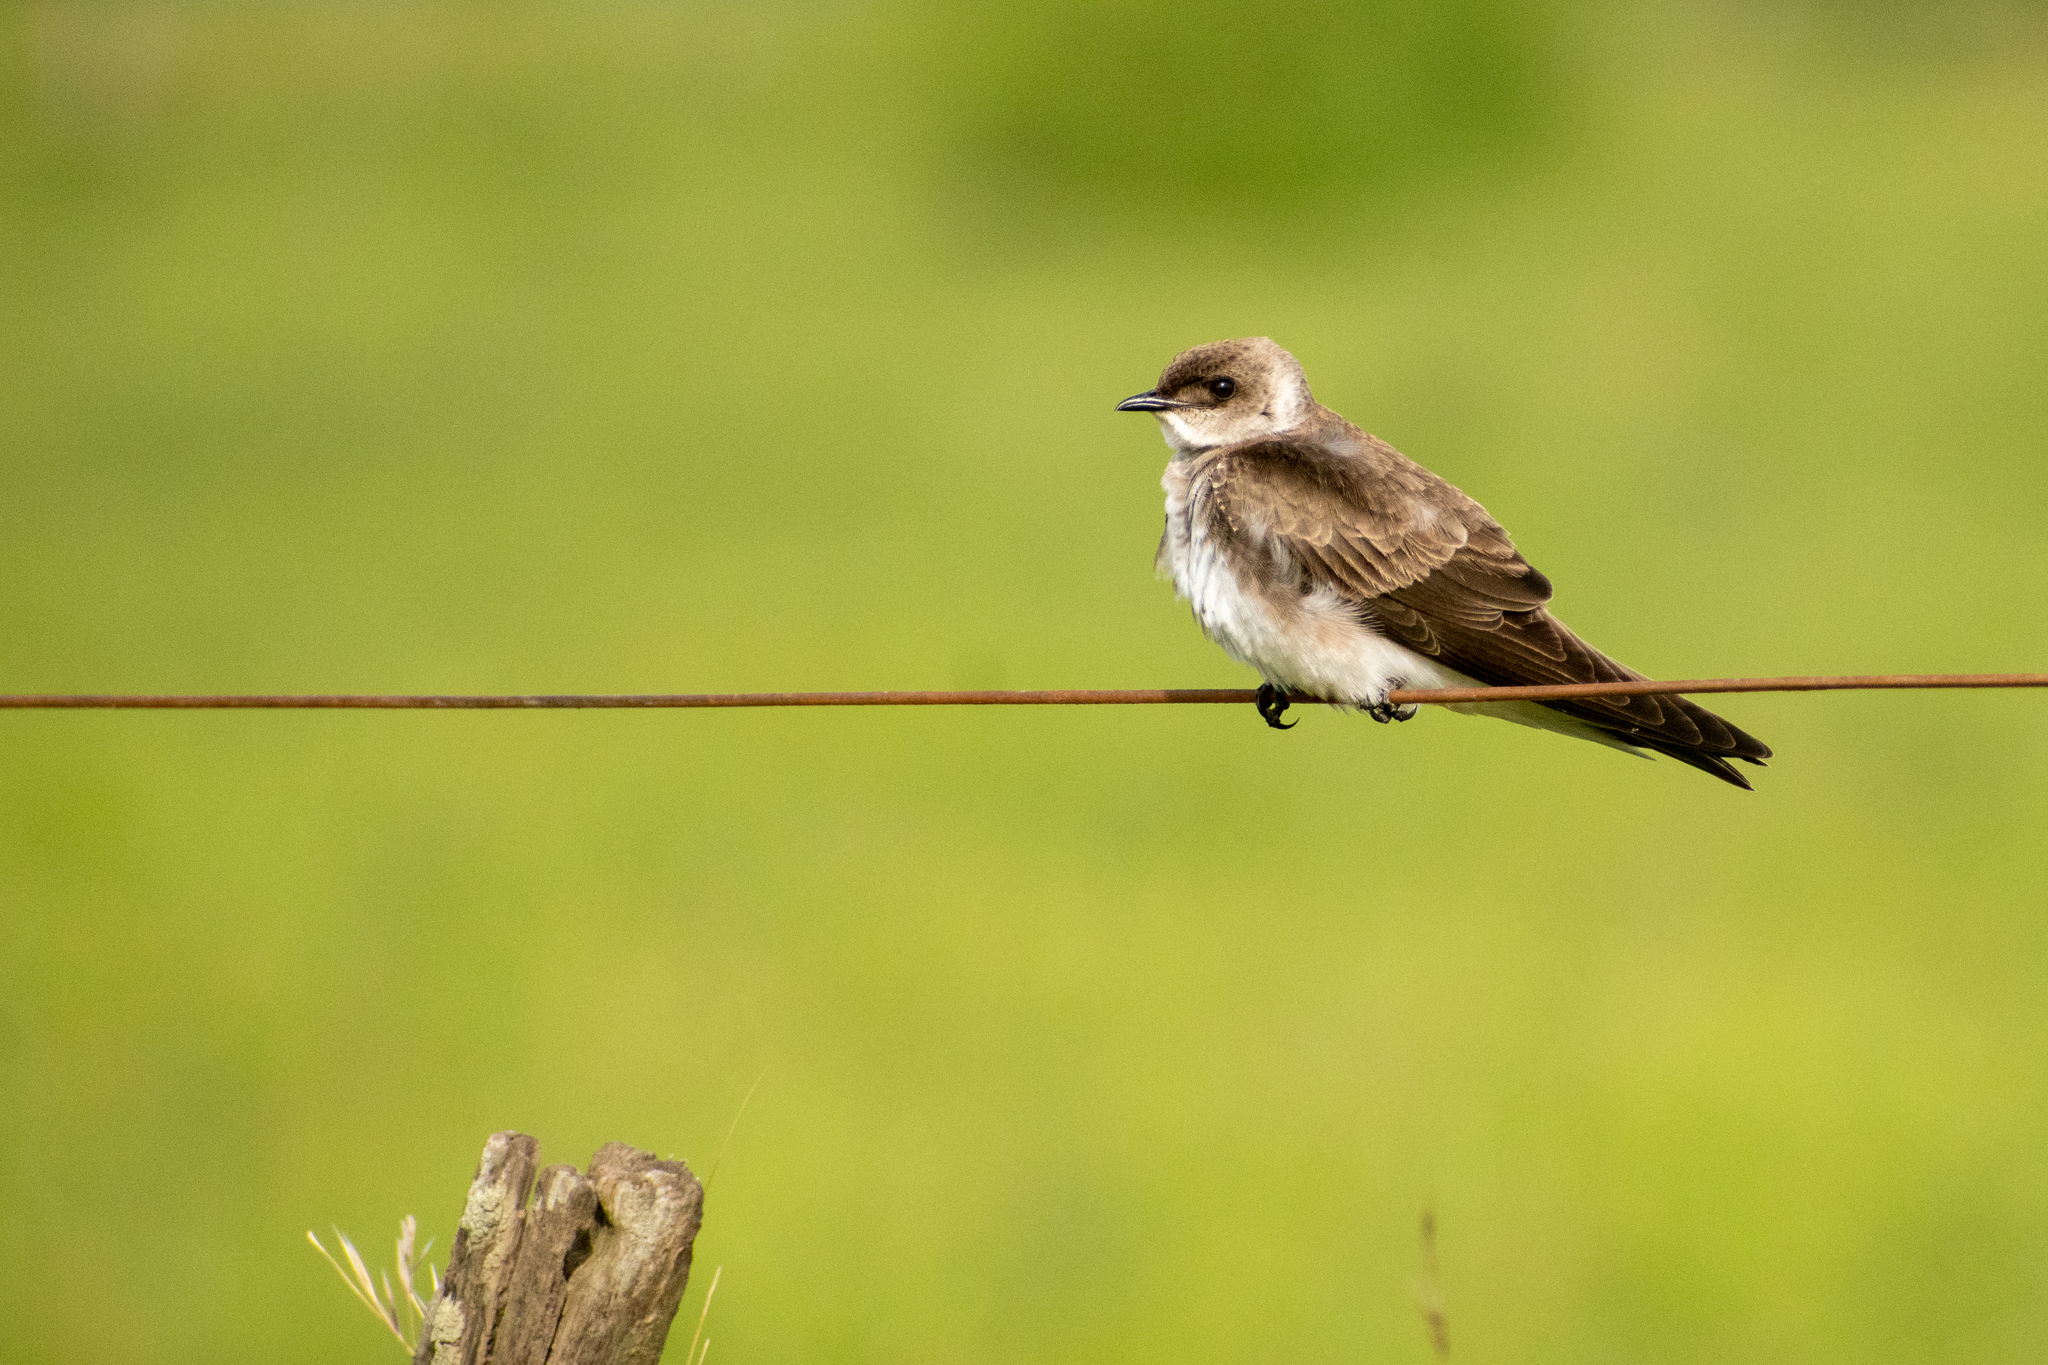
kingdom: Animalia
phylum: Chordata
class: Aves
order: Passeriformes
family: Hirundinidae
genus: Progne
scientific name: Progne tapera
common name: Brown-chested martin
